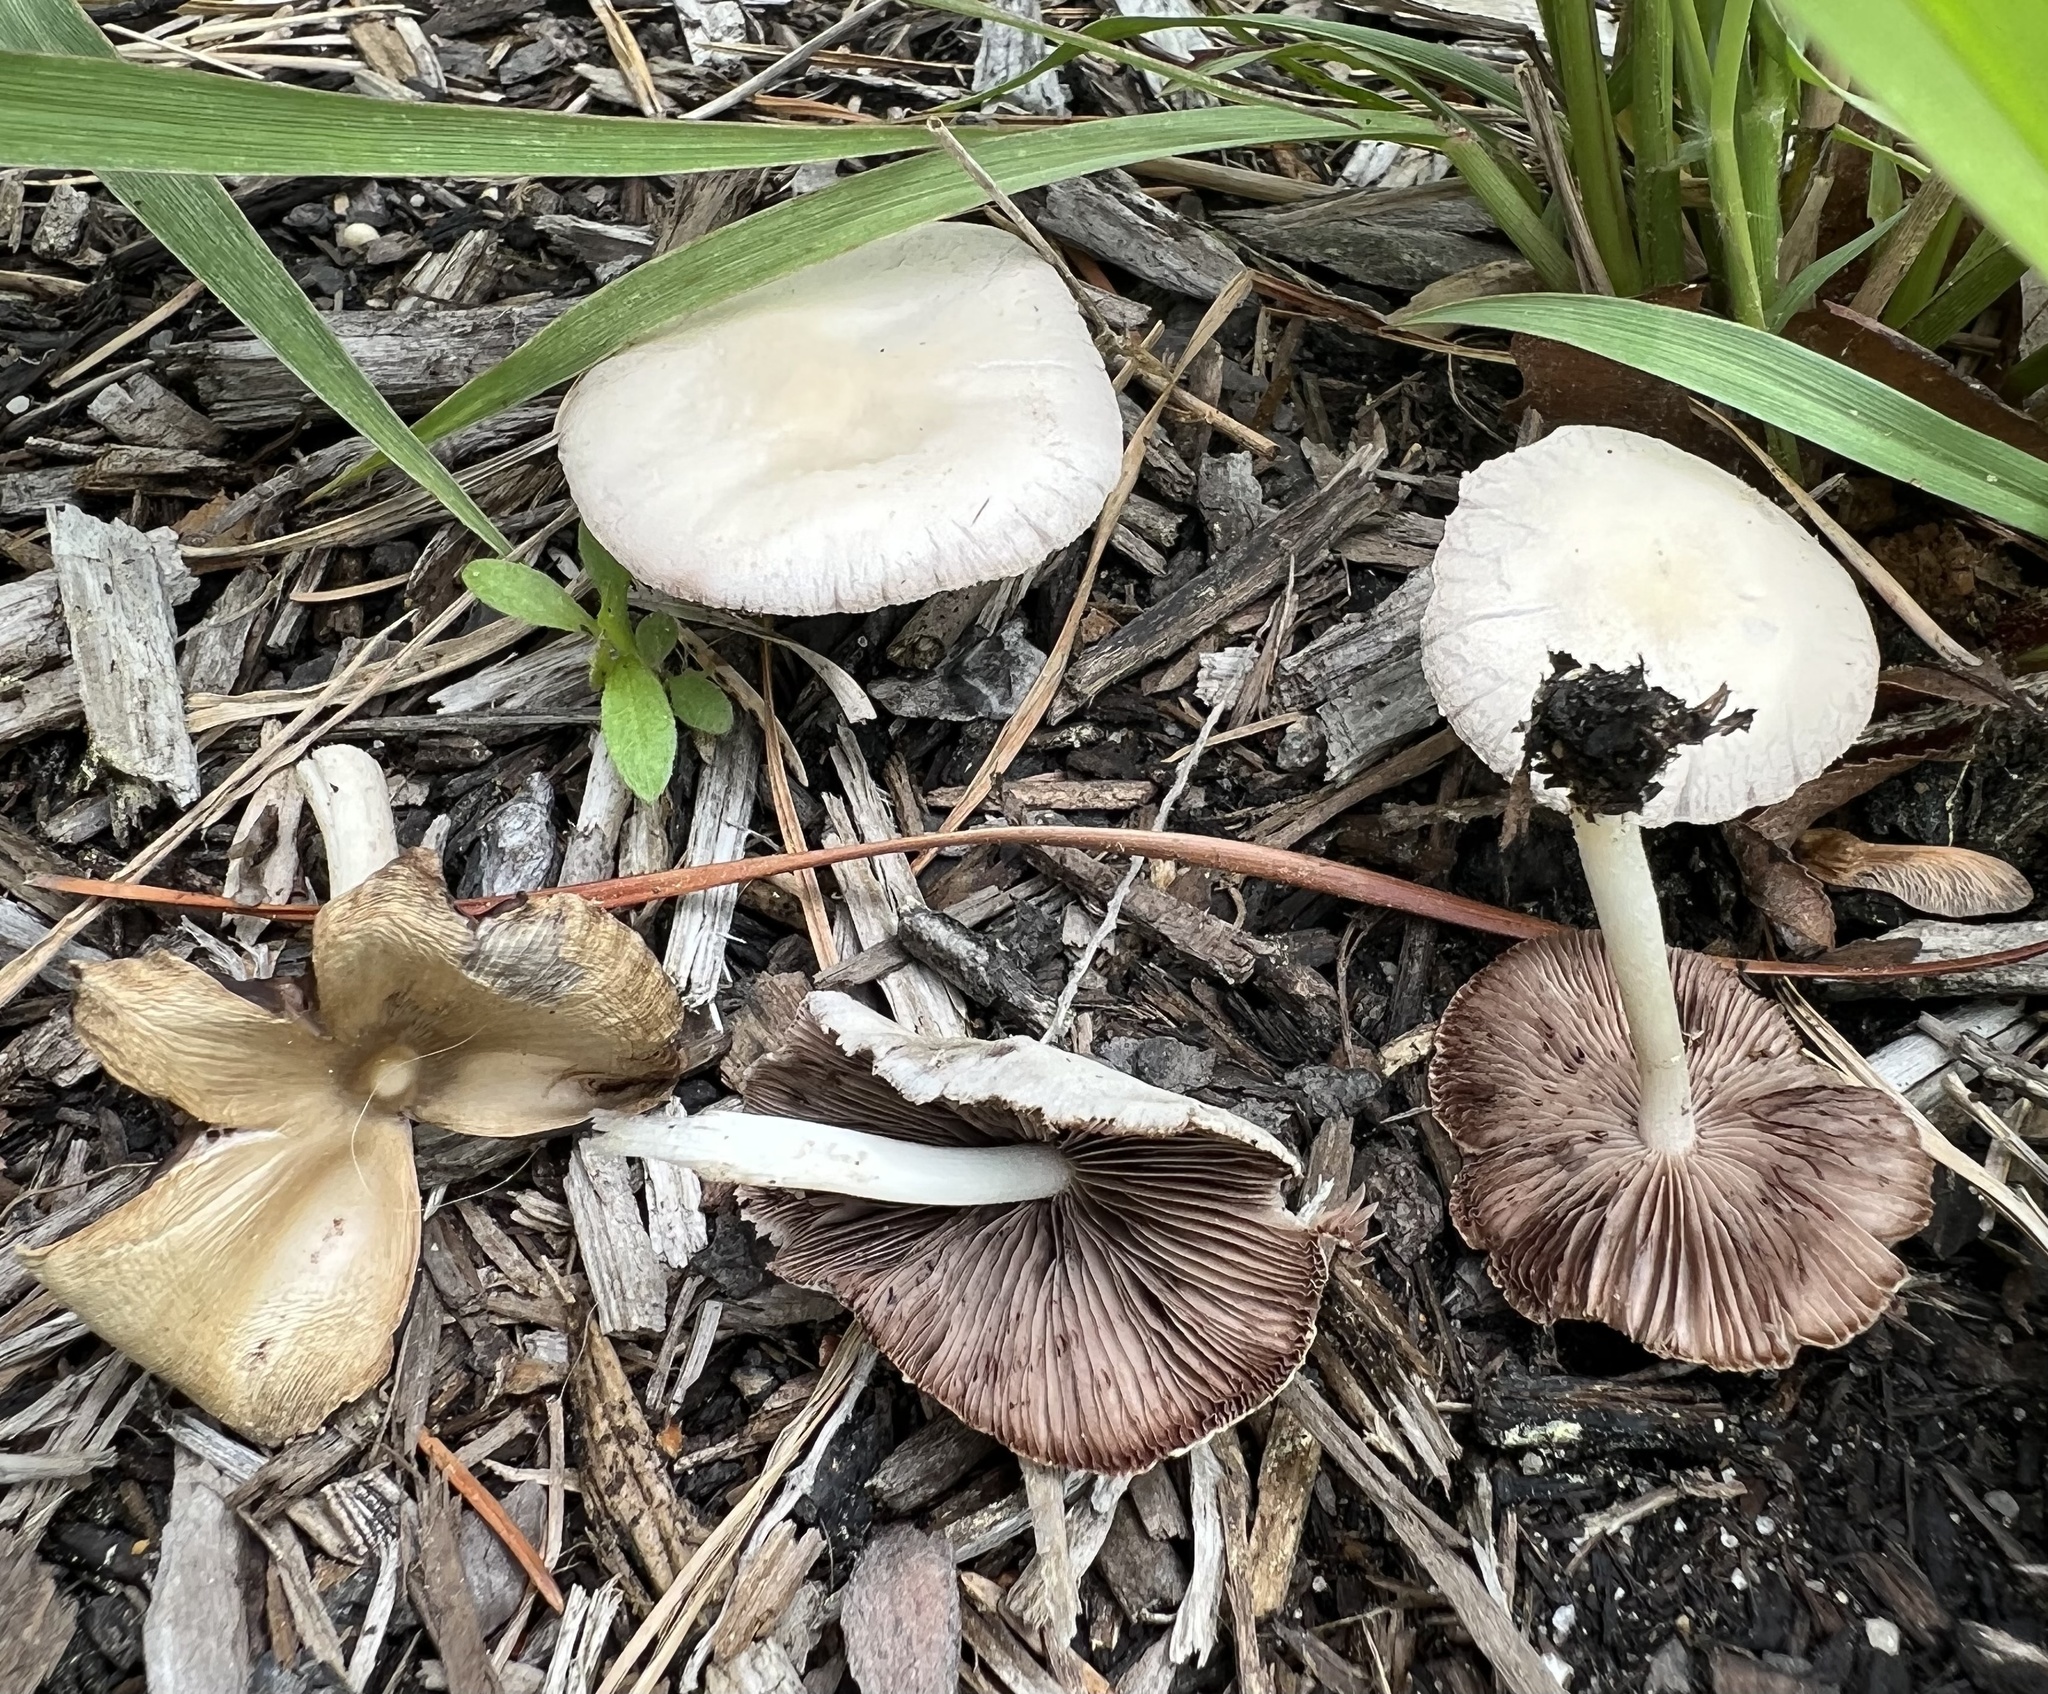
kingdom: Fungi
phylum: Basidiomycota
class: Agaricomycetes
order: Agaricales
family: Psathyrellaceae
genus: Candolleomyces
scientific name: Candolleomyces candolleanus
